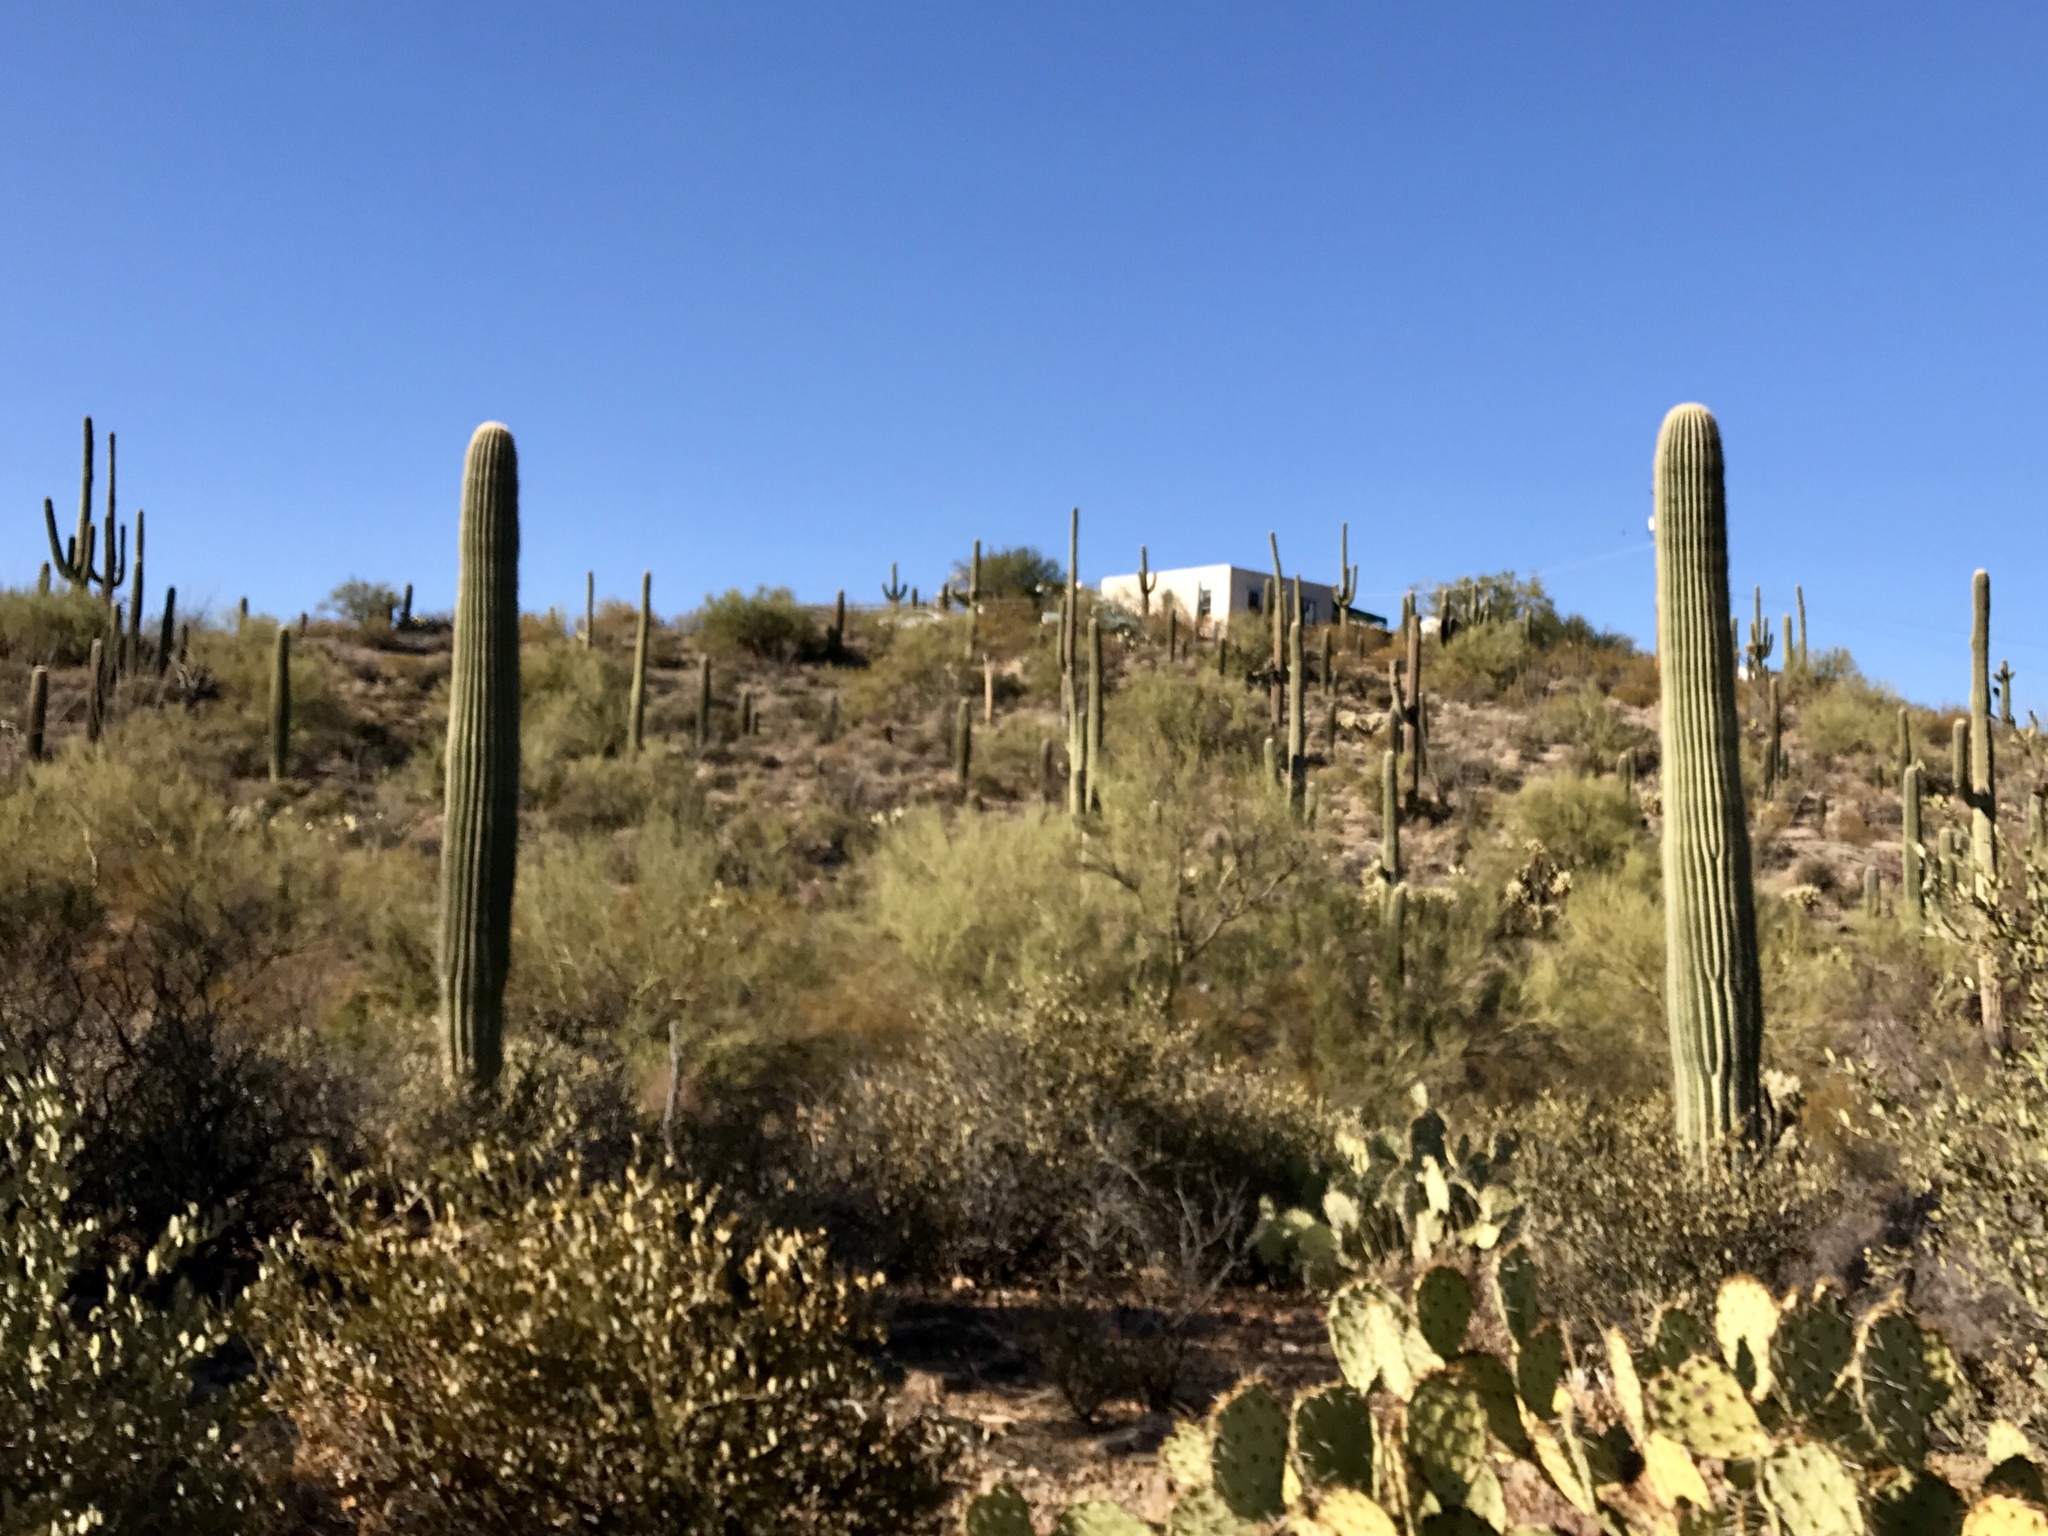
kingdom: Plantae
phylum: Tracheophyta
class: Magnoliopsida
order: Caryophyllales
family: Cactaceae
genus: Carnegiea
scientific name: Carnegiea gigantea
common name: Saguaro
